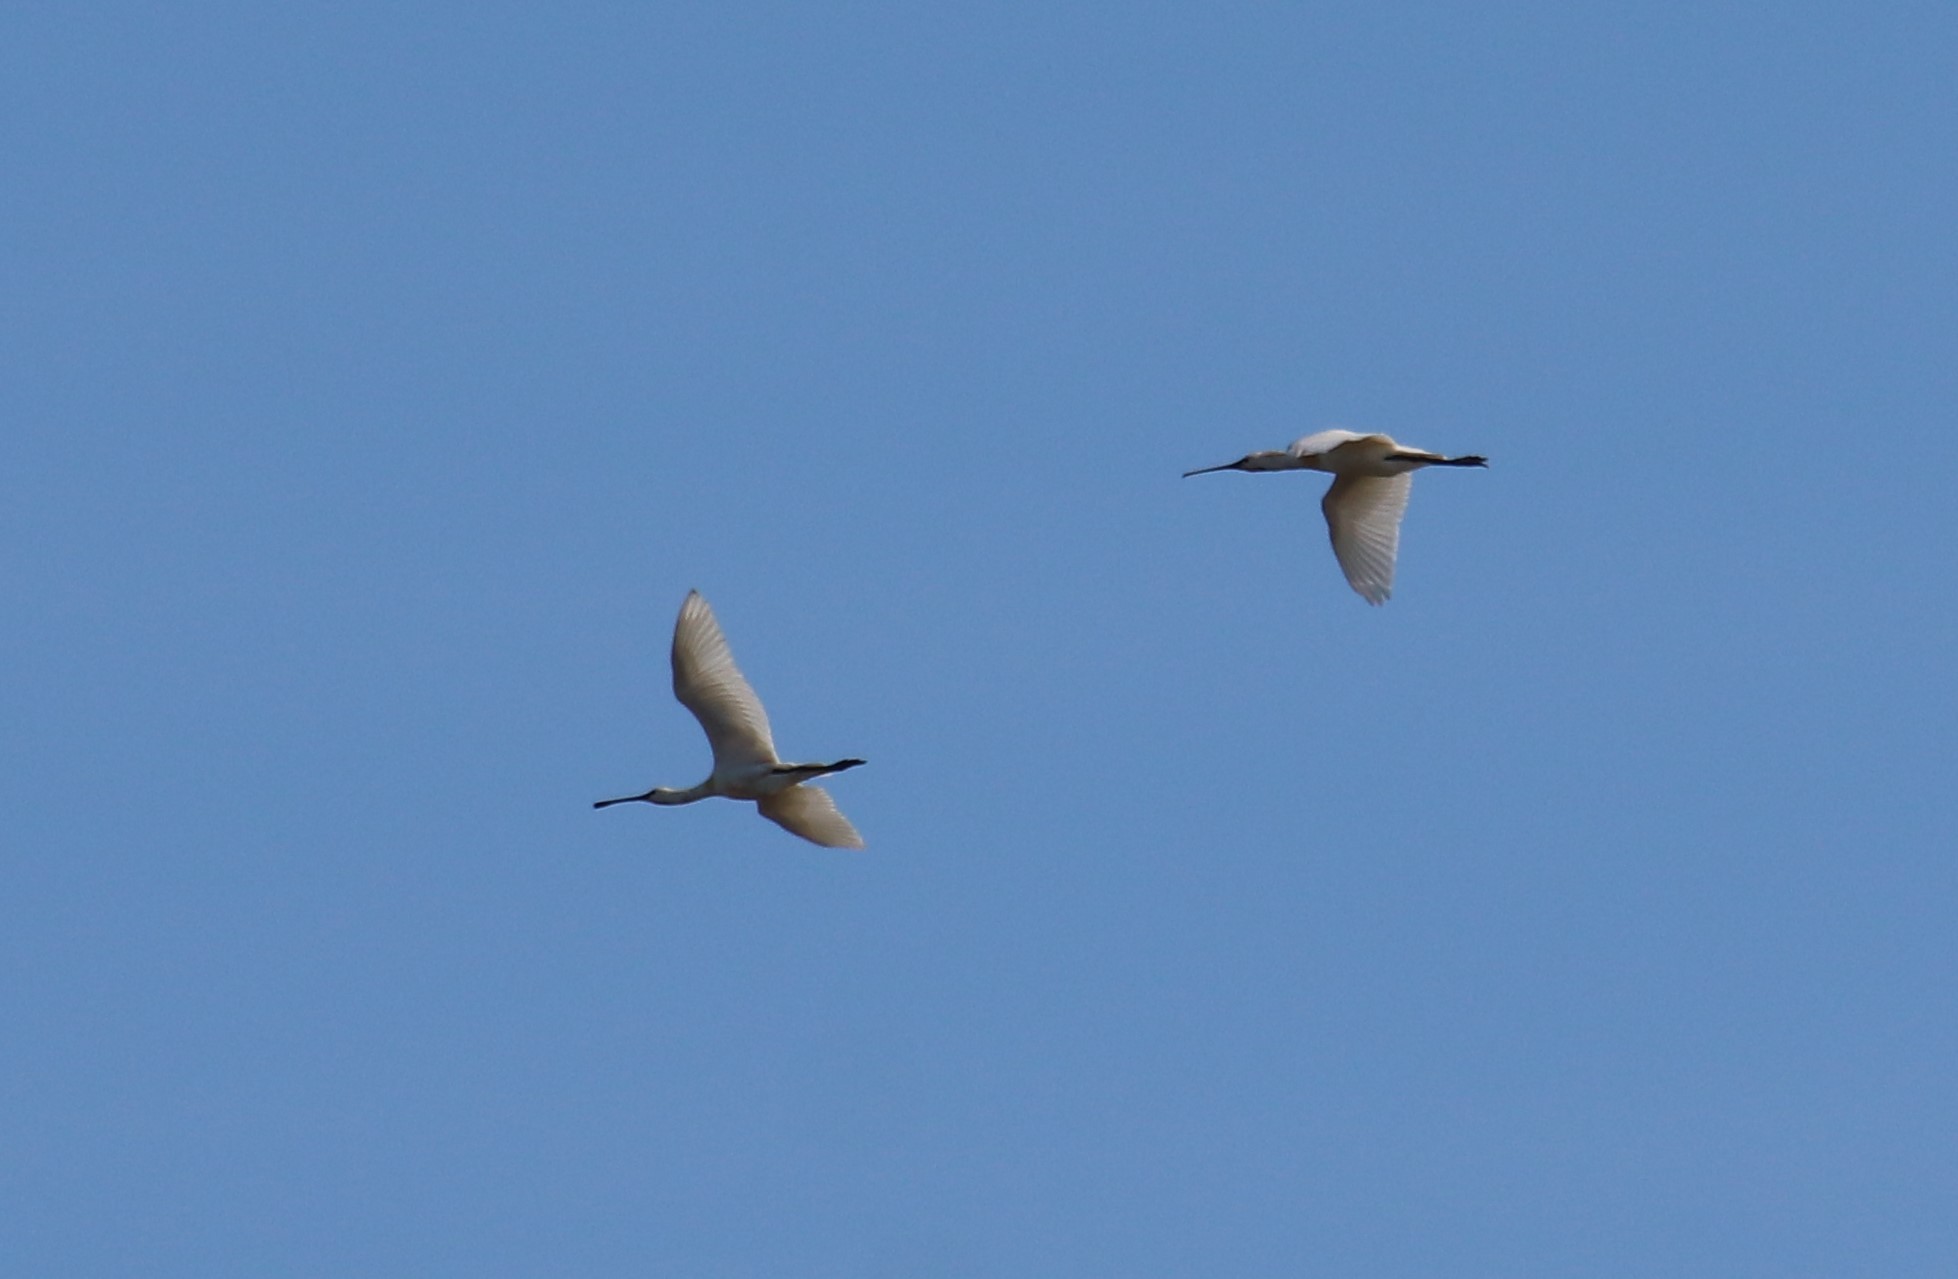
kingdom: Animalia
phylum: Chordata
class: Aves
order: Pelecaniformes
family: Threskiornithidae
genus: Platalea
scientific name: Platalea leucorodia
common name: Eurasian spoonbill
